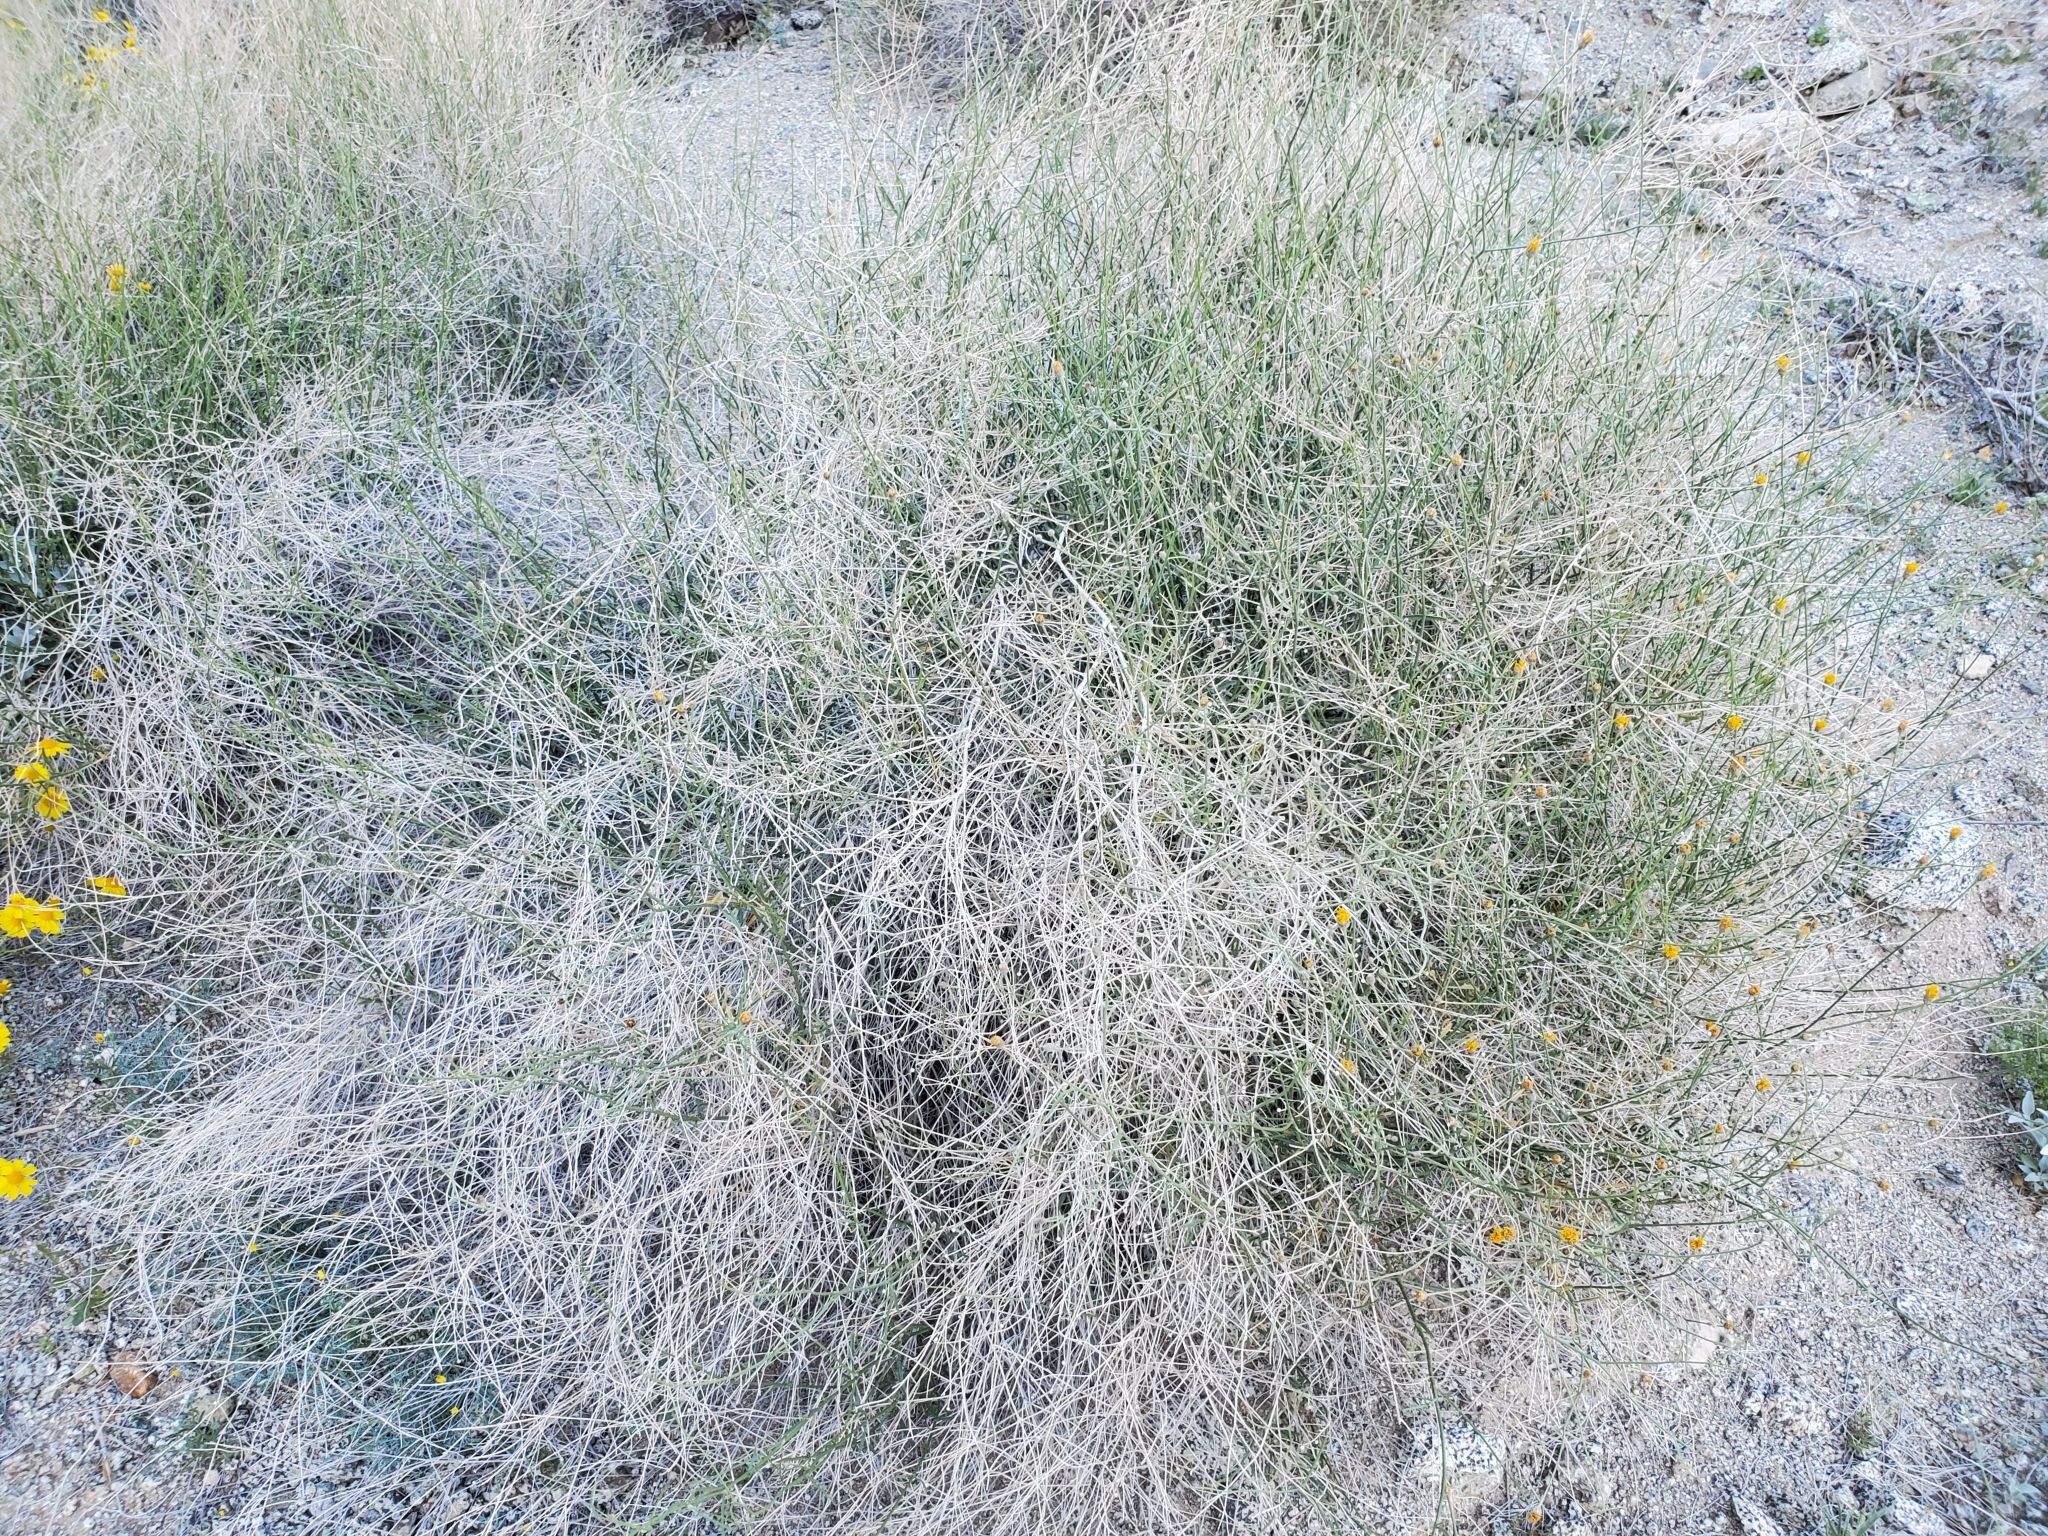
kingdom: Plantae
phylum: Tracheophyta
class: Magnoliopsida
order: Asterales
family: Asteraceae
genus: Bebbia
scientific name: Bebbia juncea
